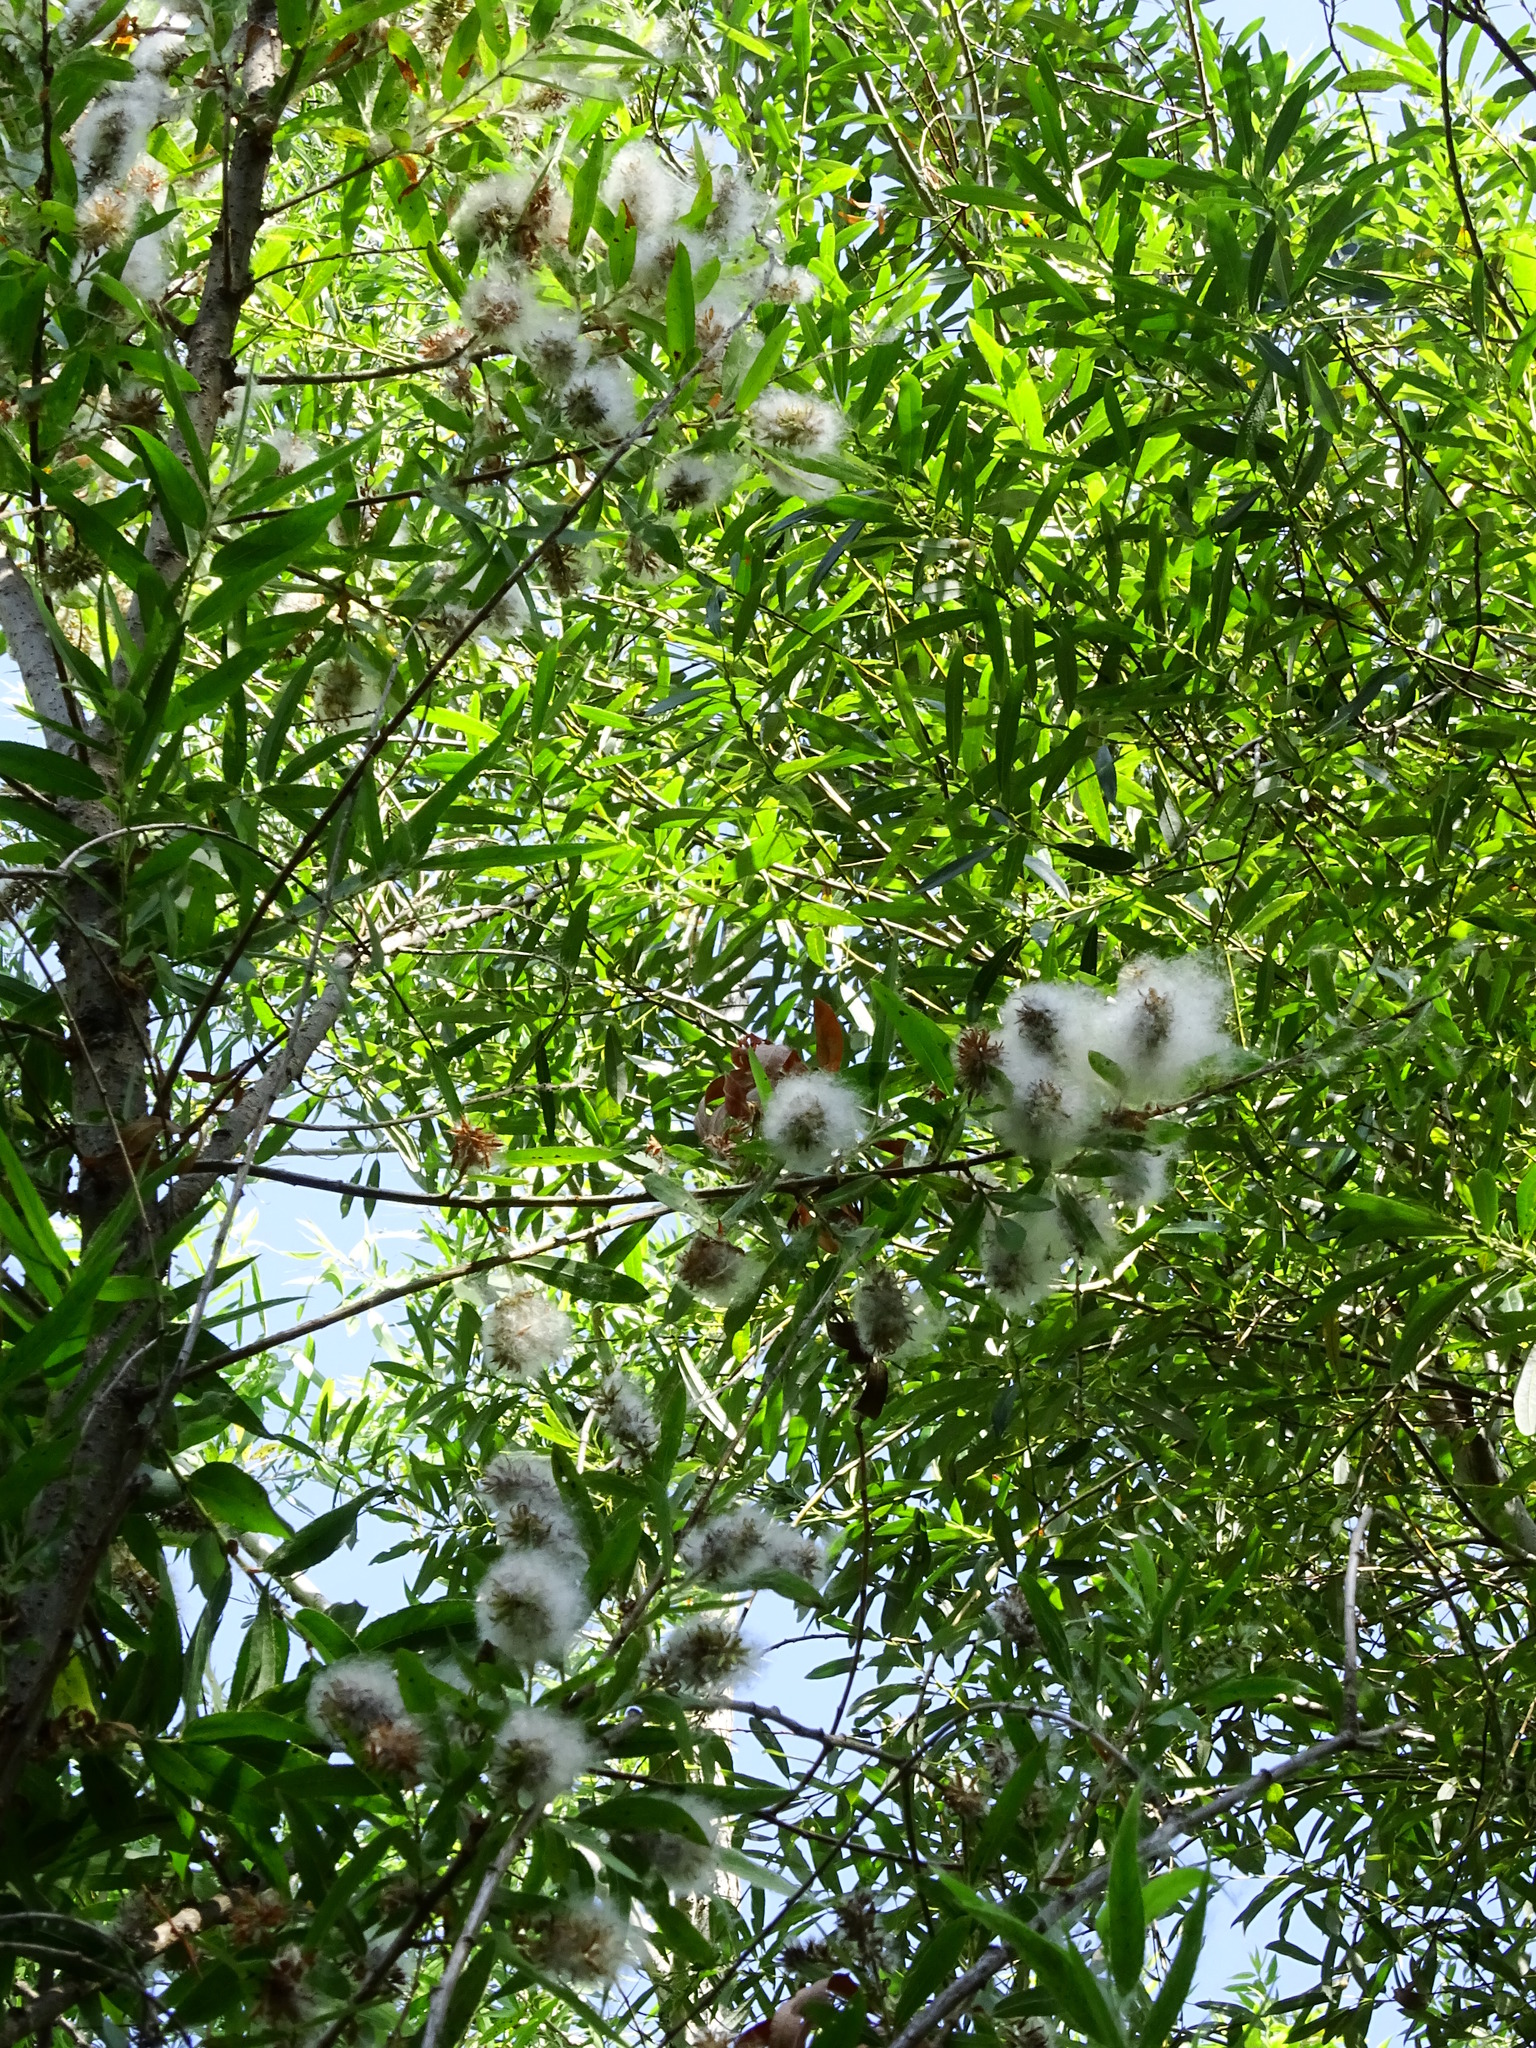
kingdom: Plantae
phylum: Tracheophyta
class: Magnoliopsida
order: Malpighiales
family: Salicaceae
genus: Salix
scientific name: Salix gooddingii
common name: Goodding's willow
